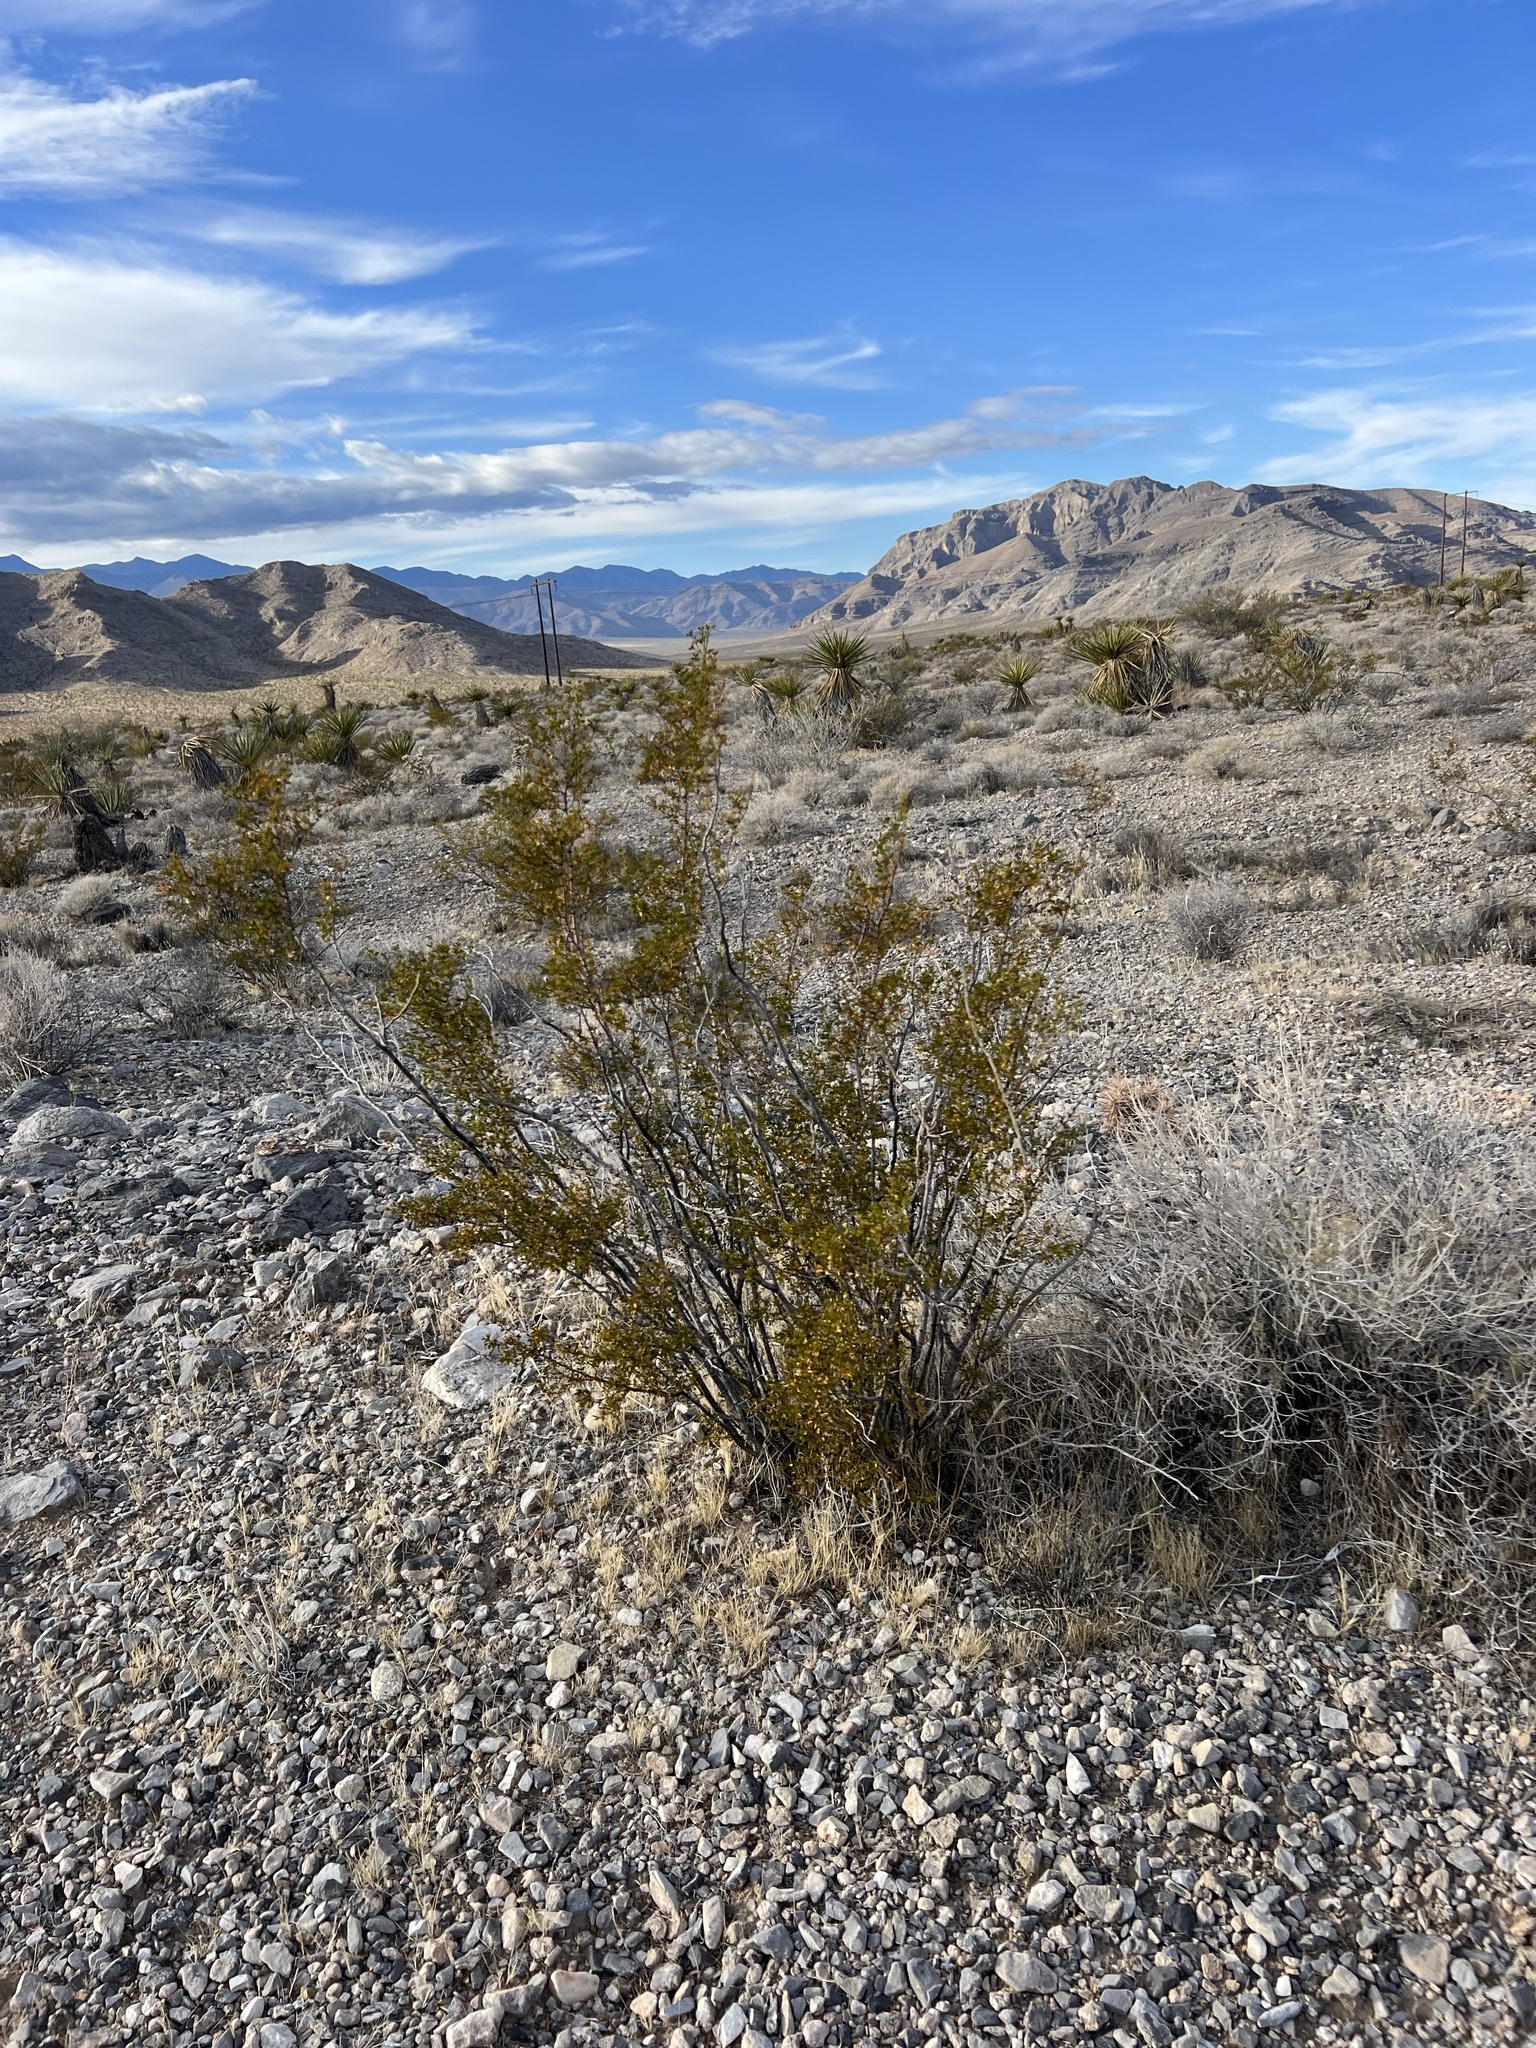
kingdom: Plantae
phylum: Tracheophyta
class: Magnoliopsida
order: Zygophyllales
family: Zygophyllaceae
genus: Larrea
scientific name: Larrea tridentata
